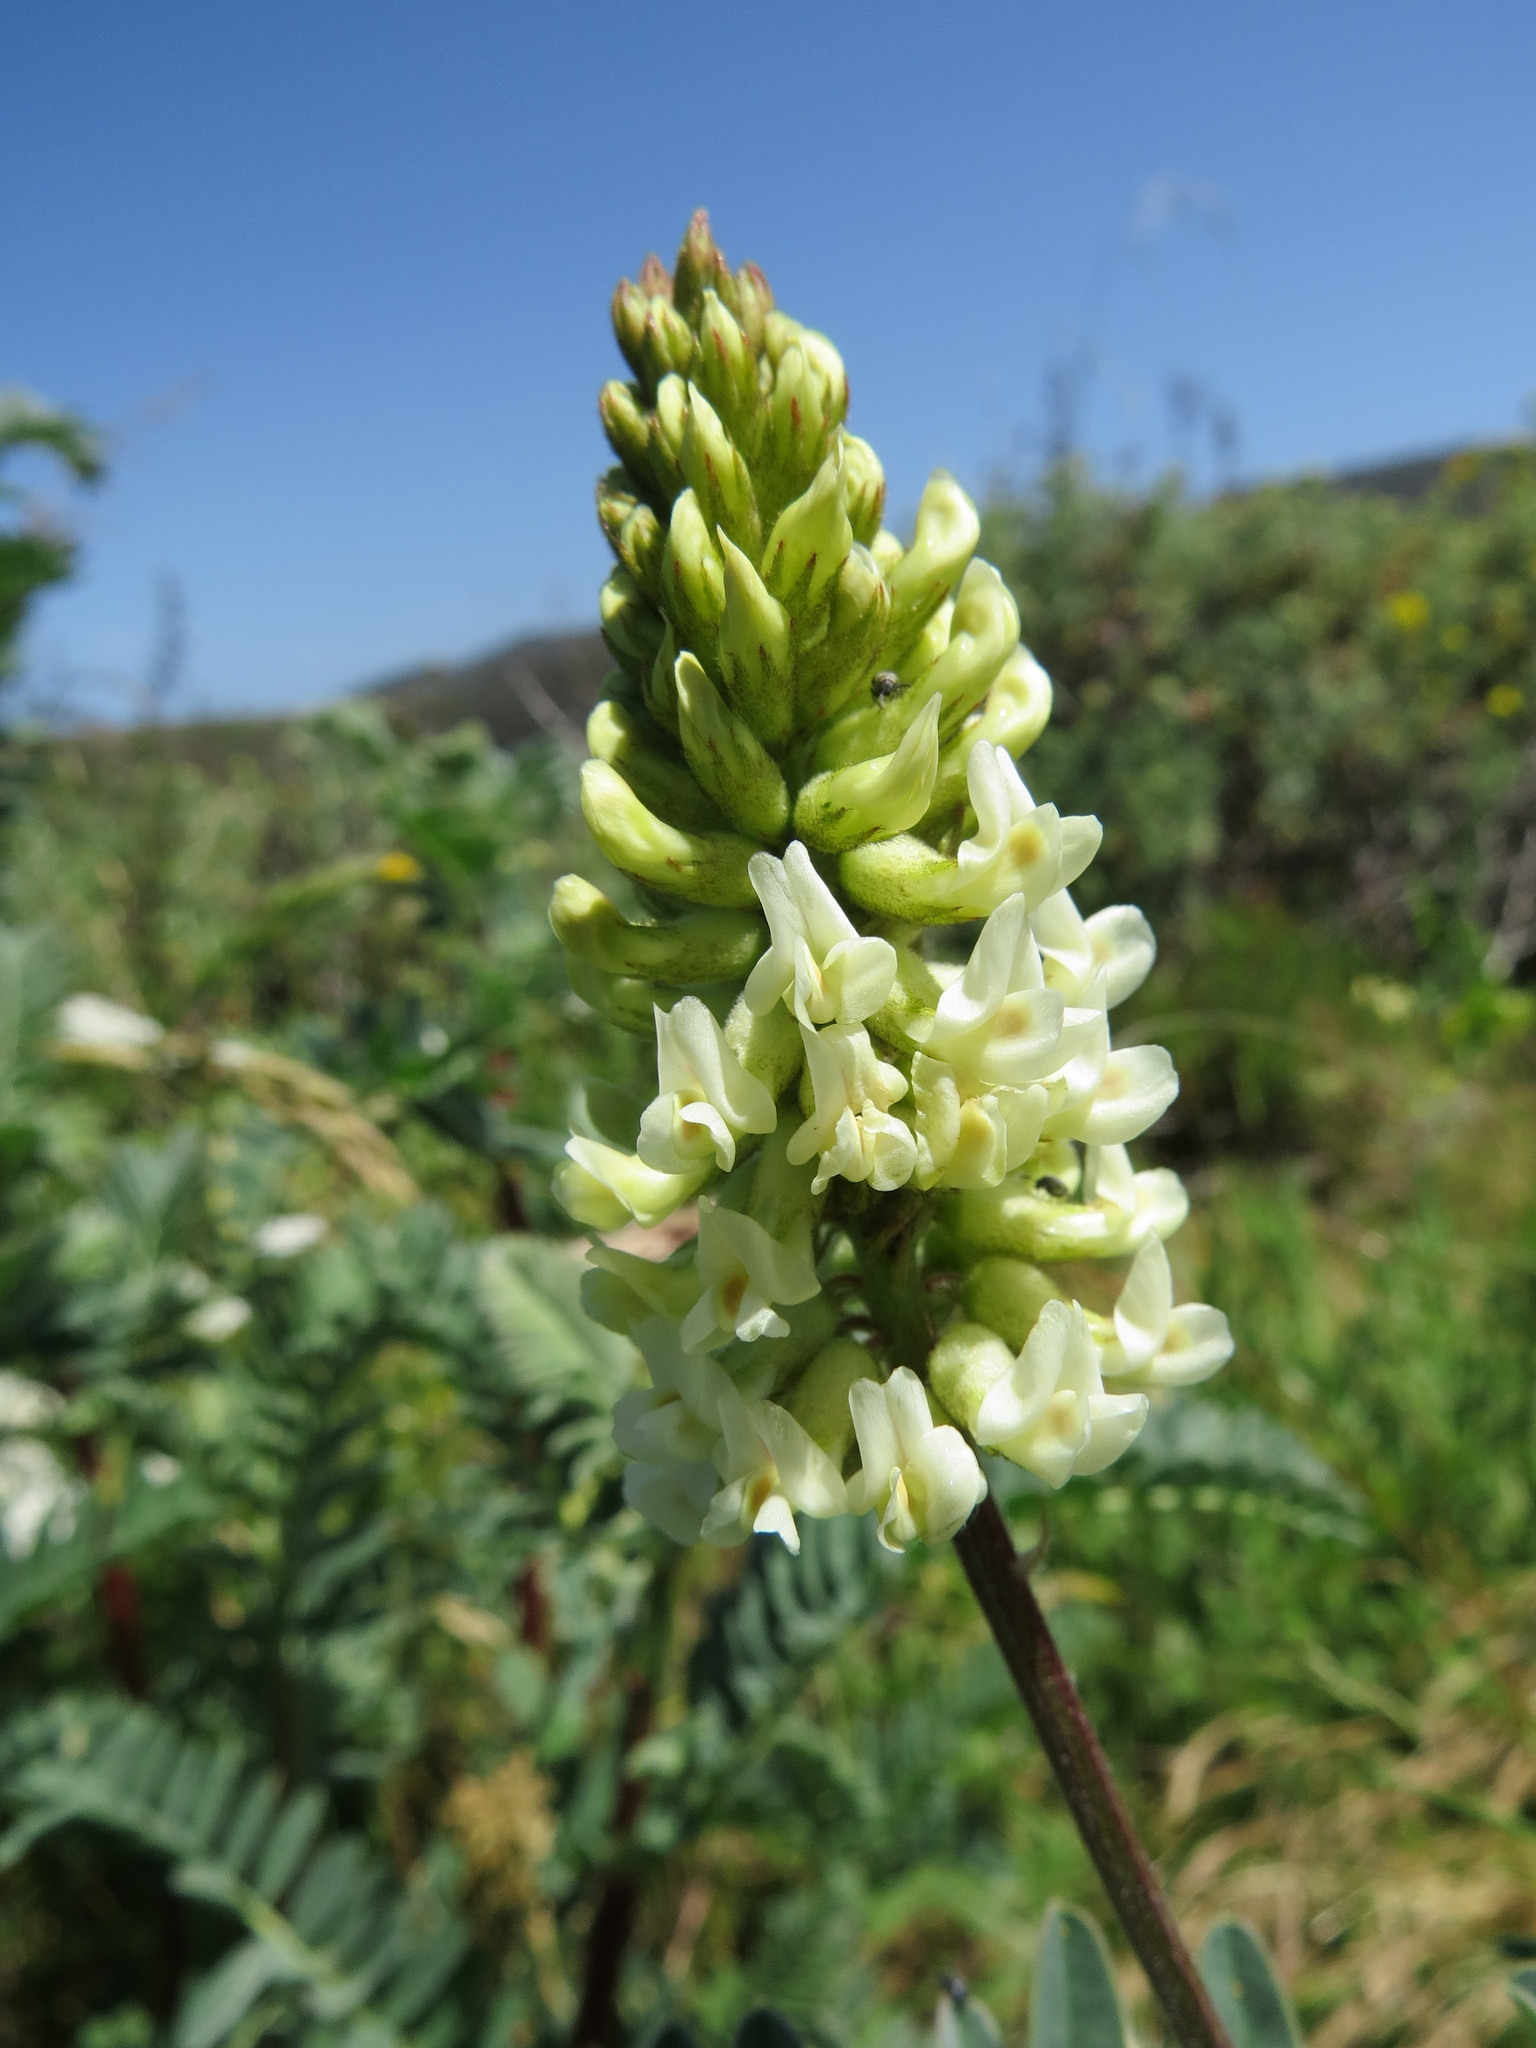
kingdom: Plantae
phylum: Tracheophyta
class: Magnoliopsida
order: Fabales
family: Fabaceae
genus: Astragalus
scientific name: Astragalus pycnostachyus
